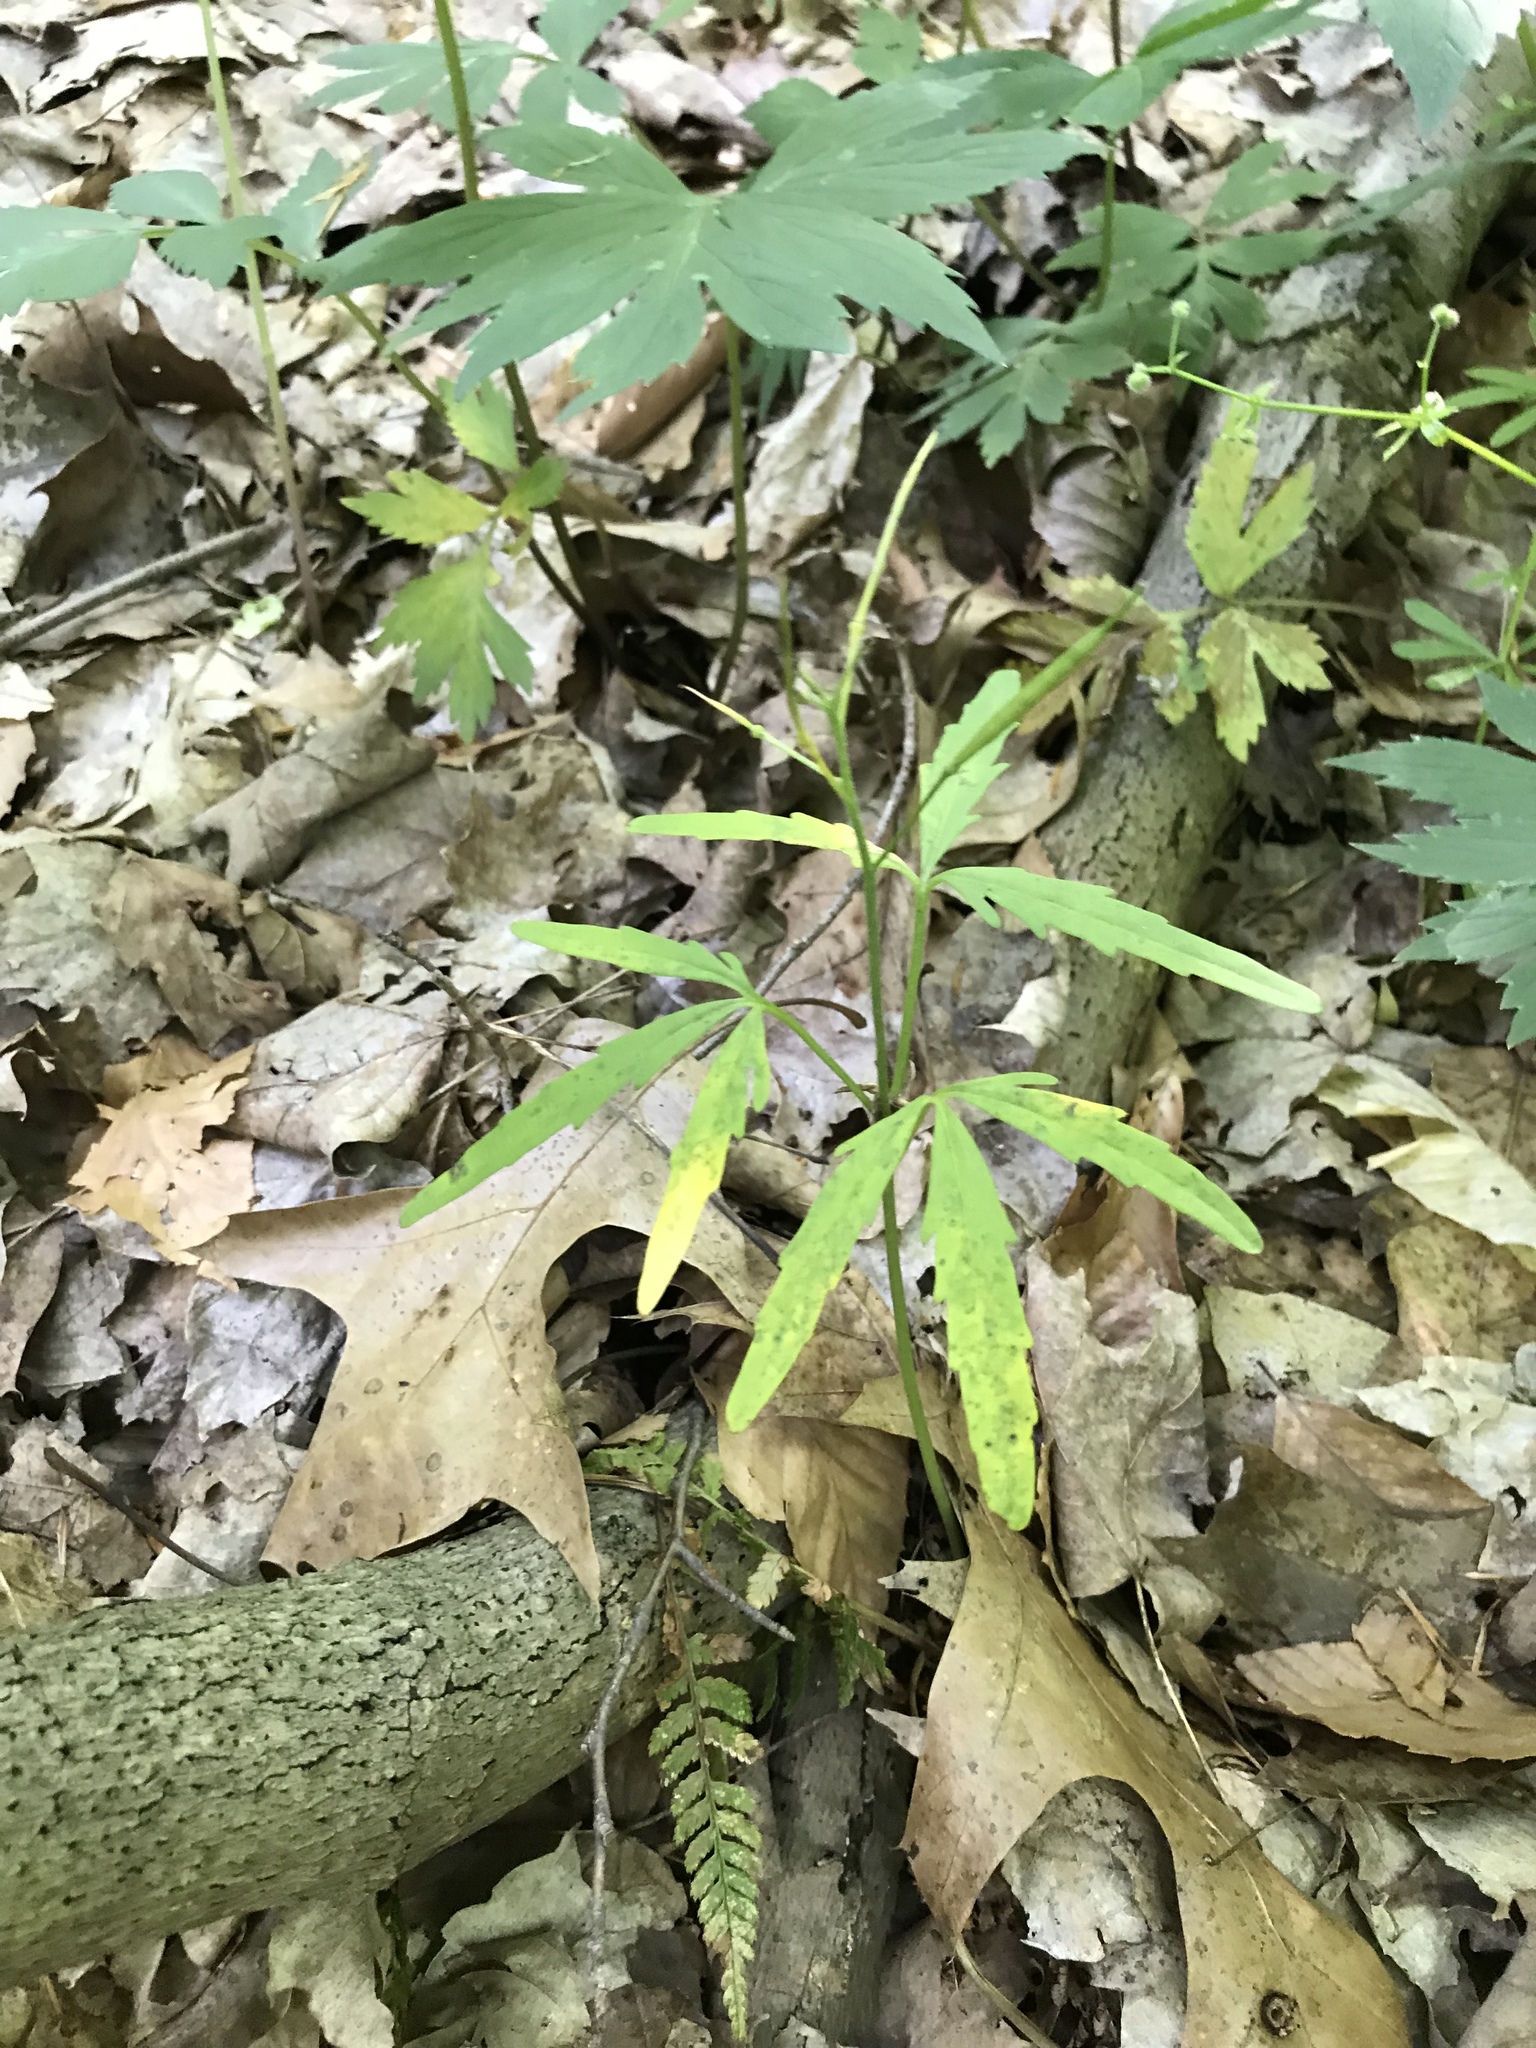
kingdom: Plantae
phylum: Tracheophyta
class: Magnoliopsida
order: Brassicales
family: Brassicaceae
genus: Cardamine
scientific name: Cardamine concatenata
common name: Cut-leaf toothcup
